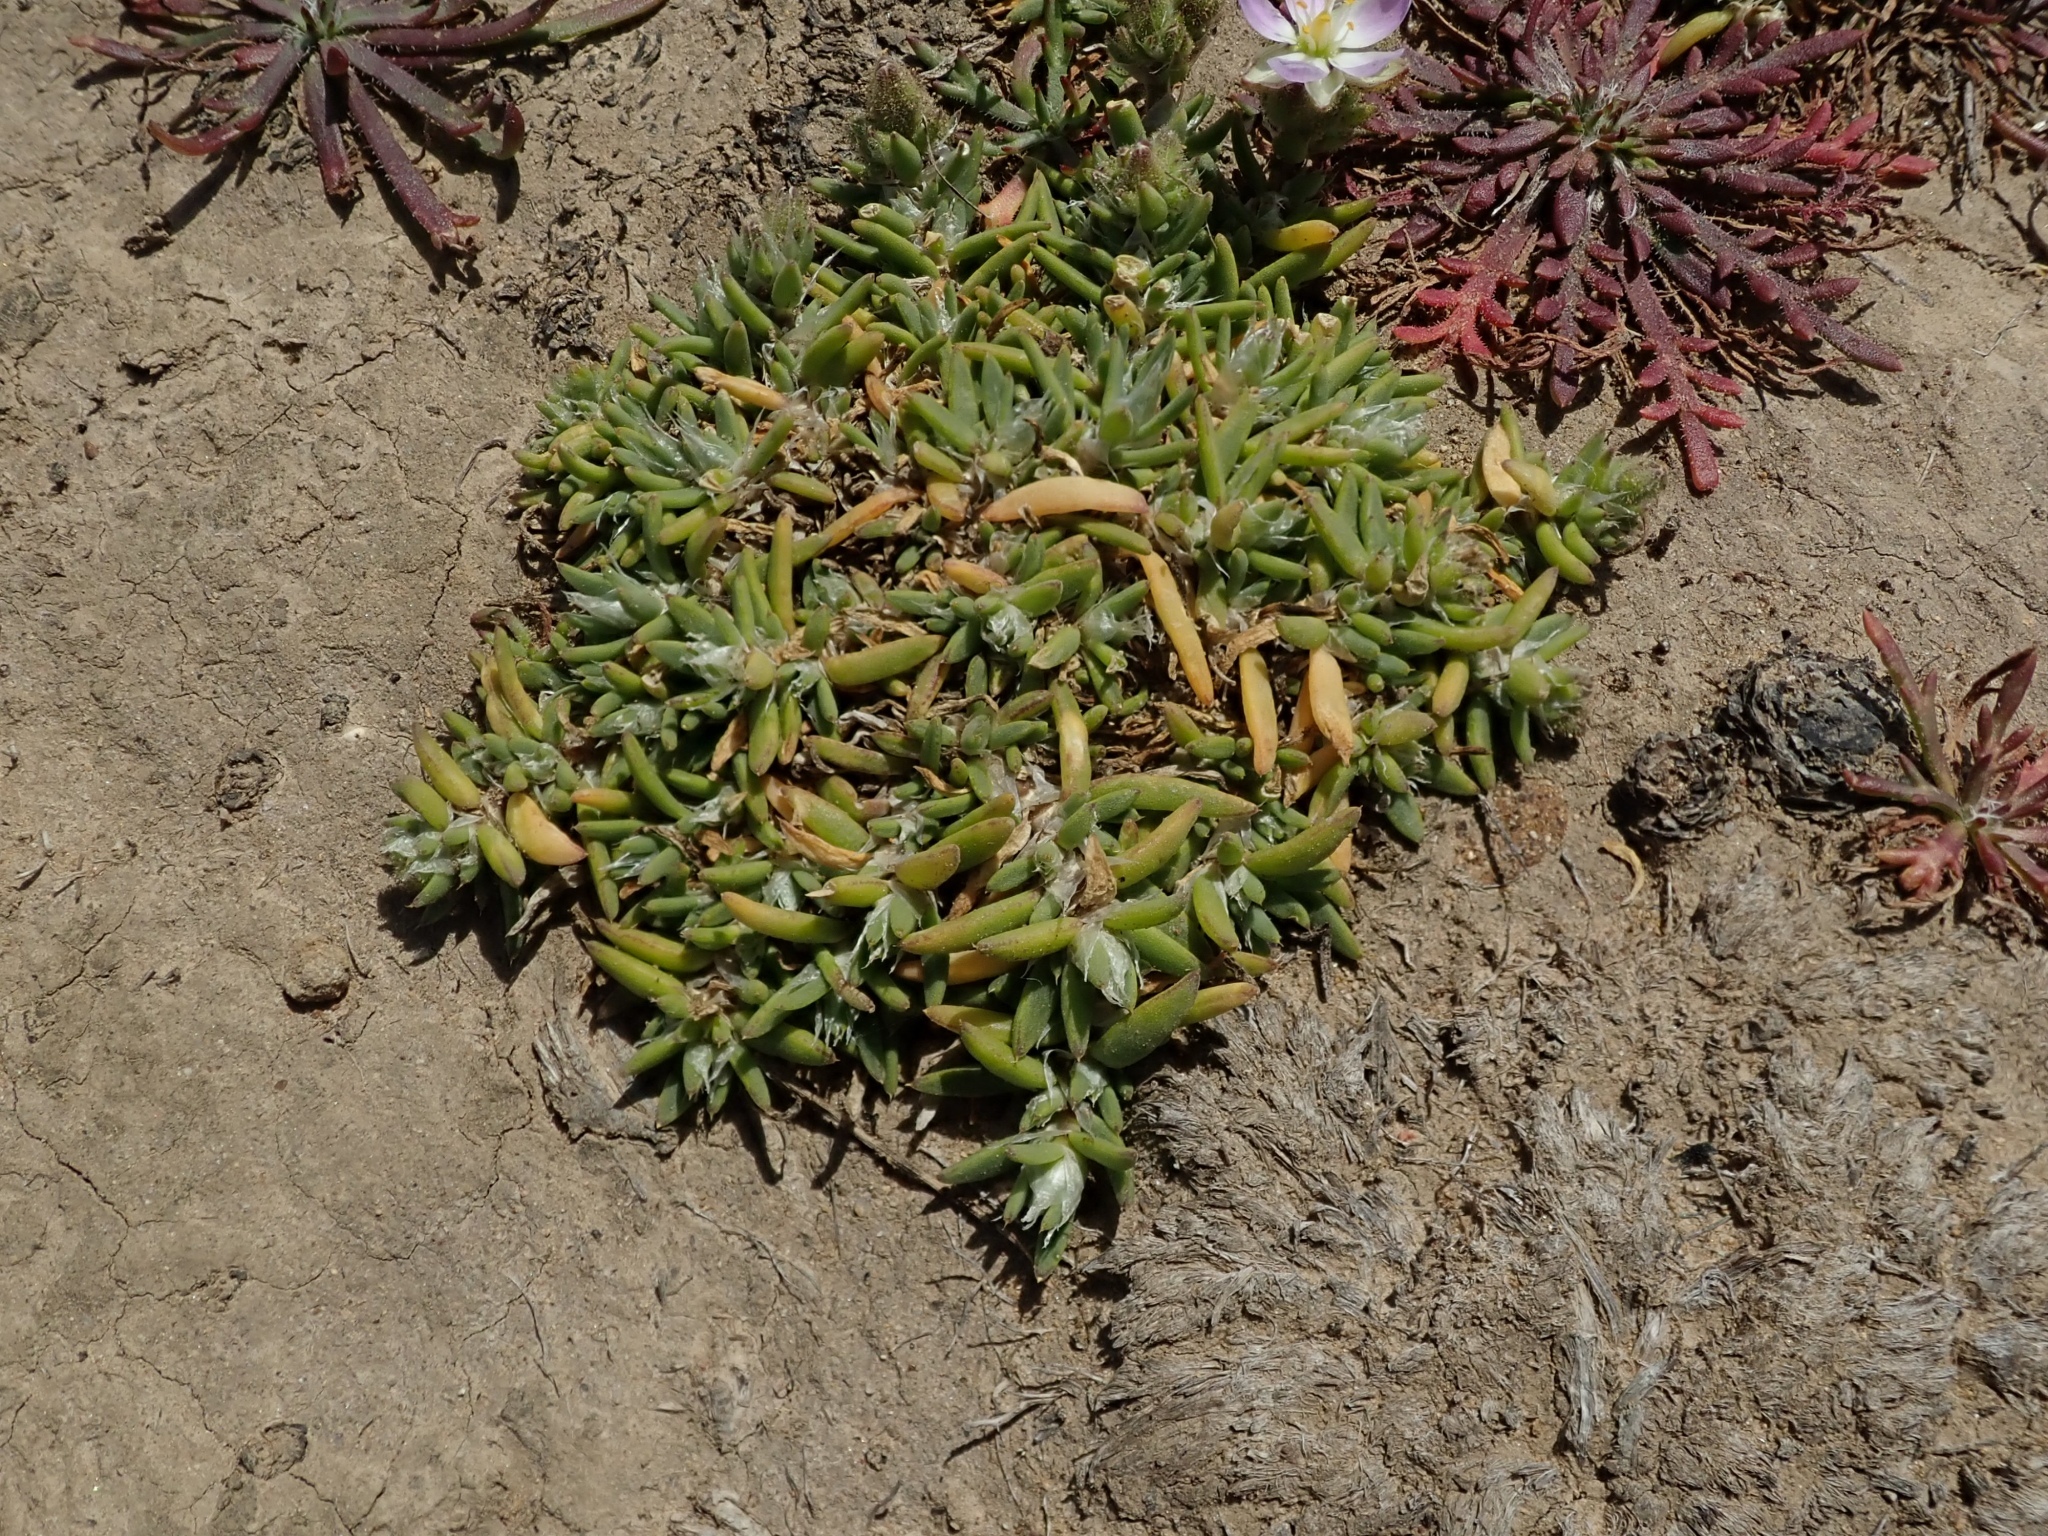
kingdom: Plantae
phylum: Tracheophyta
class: Magnoliopsida
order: Caryophyllales
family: Caryophyllaceae
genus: Spergularia
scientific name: Spergularia macrotheca
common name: Beach sand-spurrey
